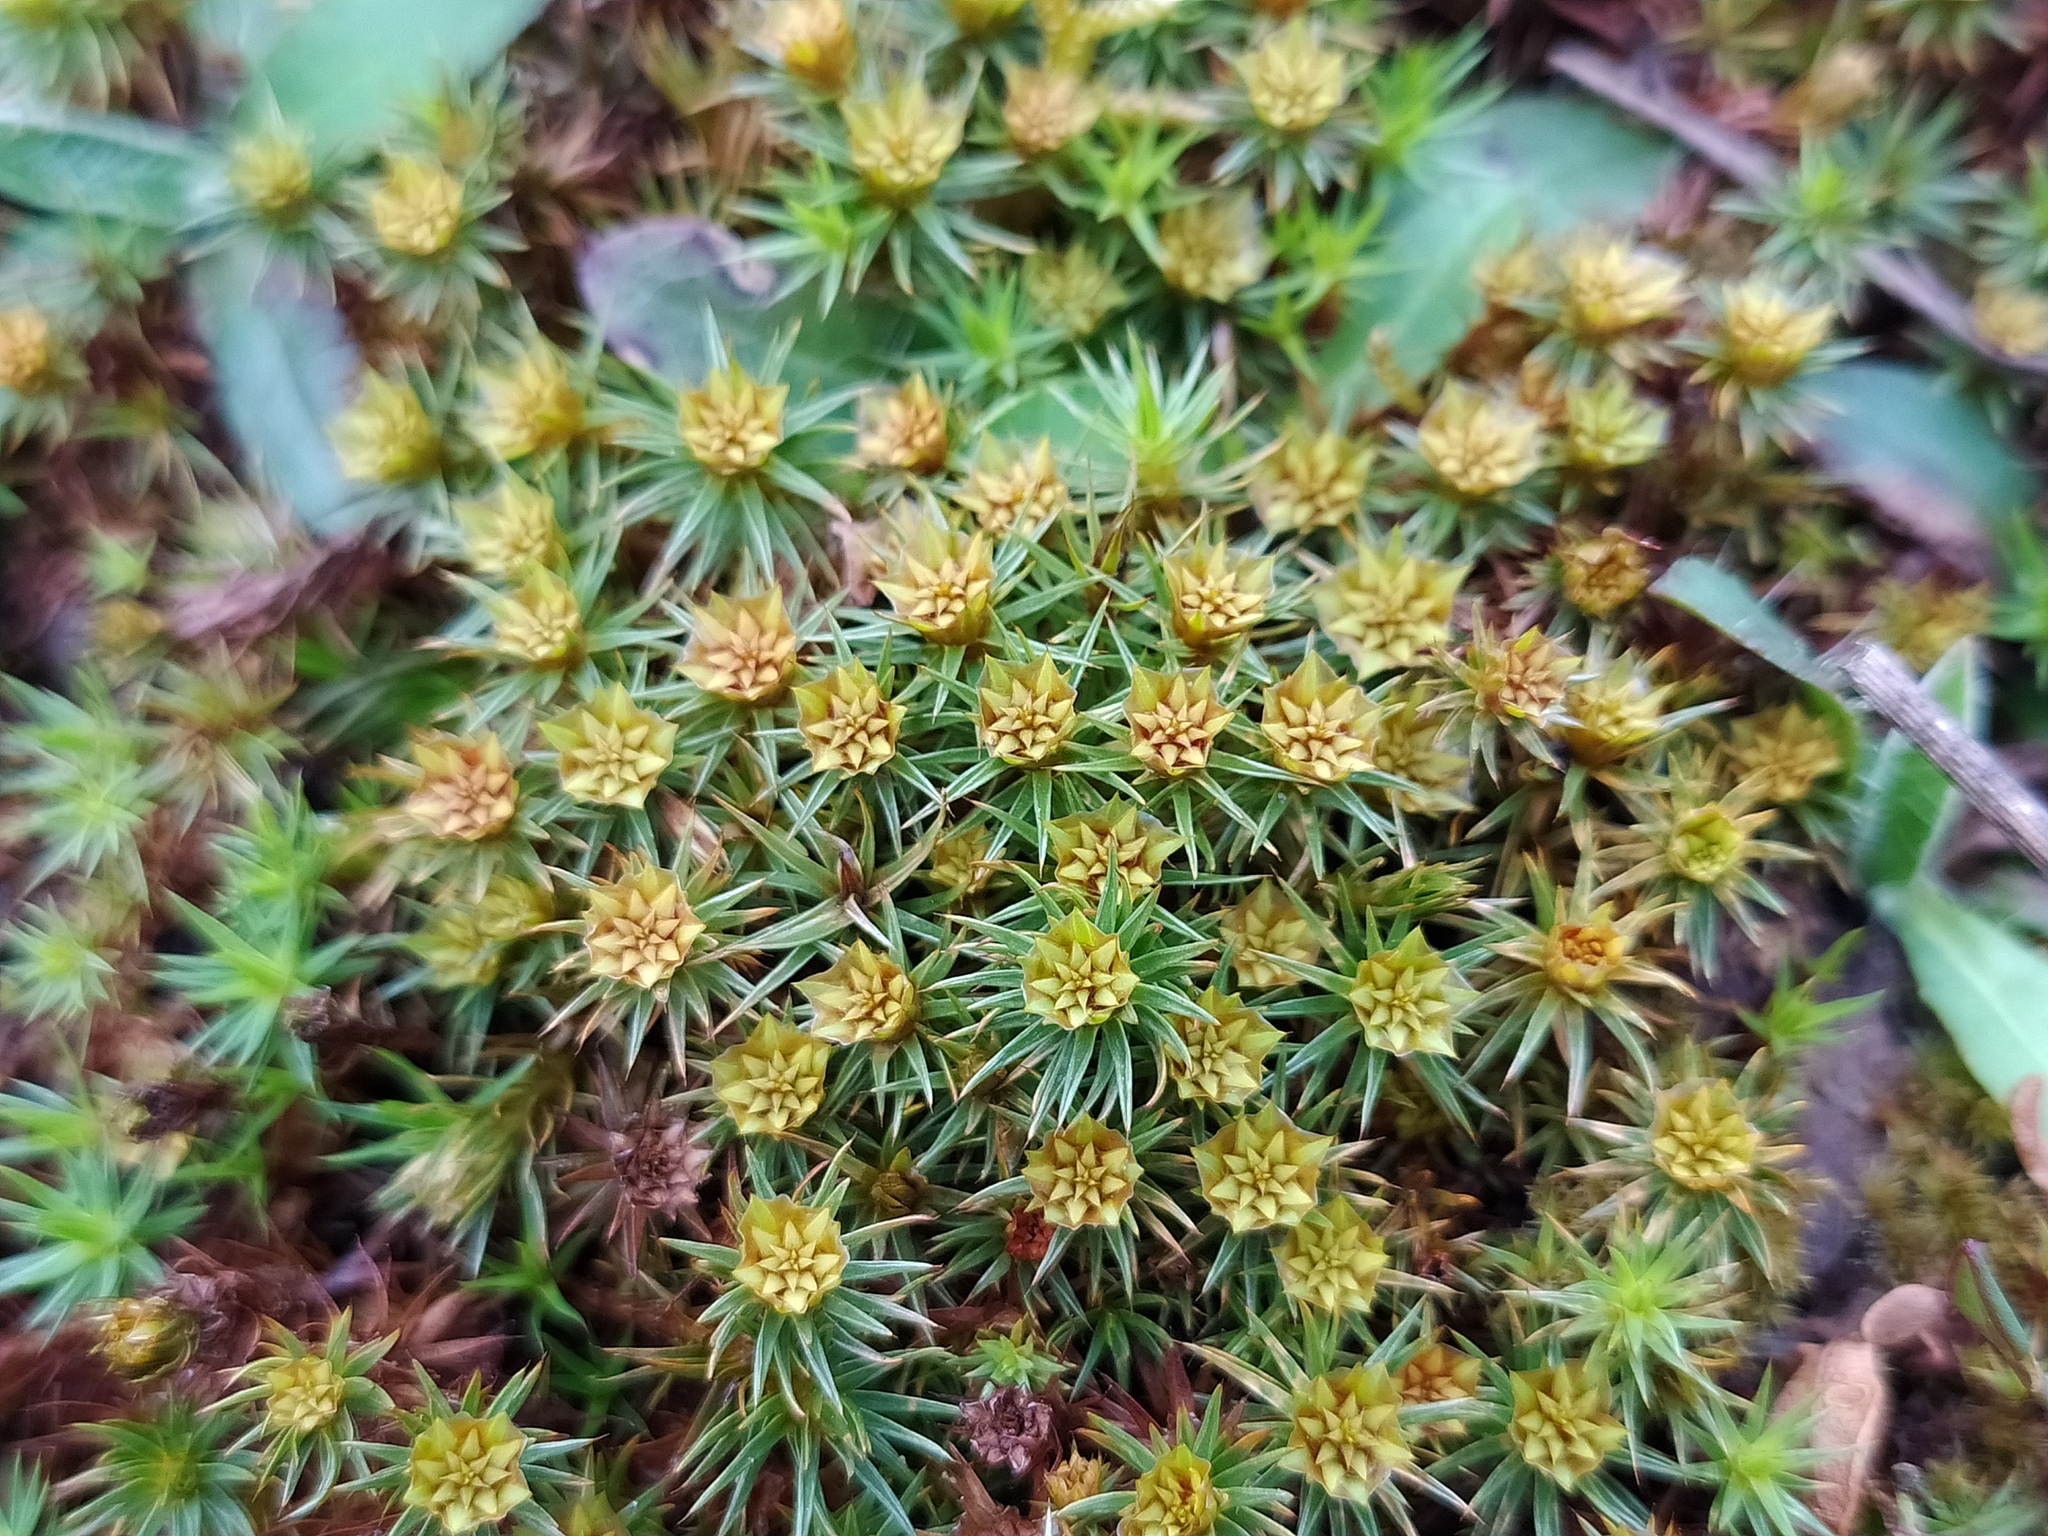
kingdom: Plantae
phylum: Bryophyta
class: Polytrichopsida
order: Polytrichales
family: Polytrichaceae
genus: Polytrichum
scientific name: Polytrichum juniperinum
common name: Juniper haircap moss
